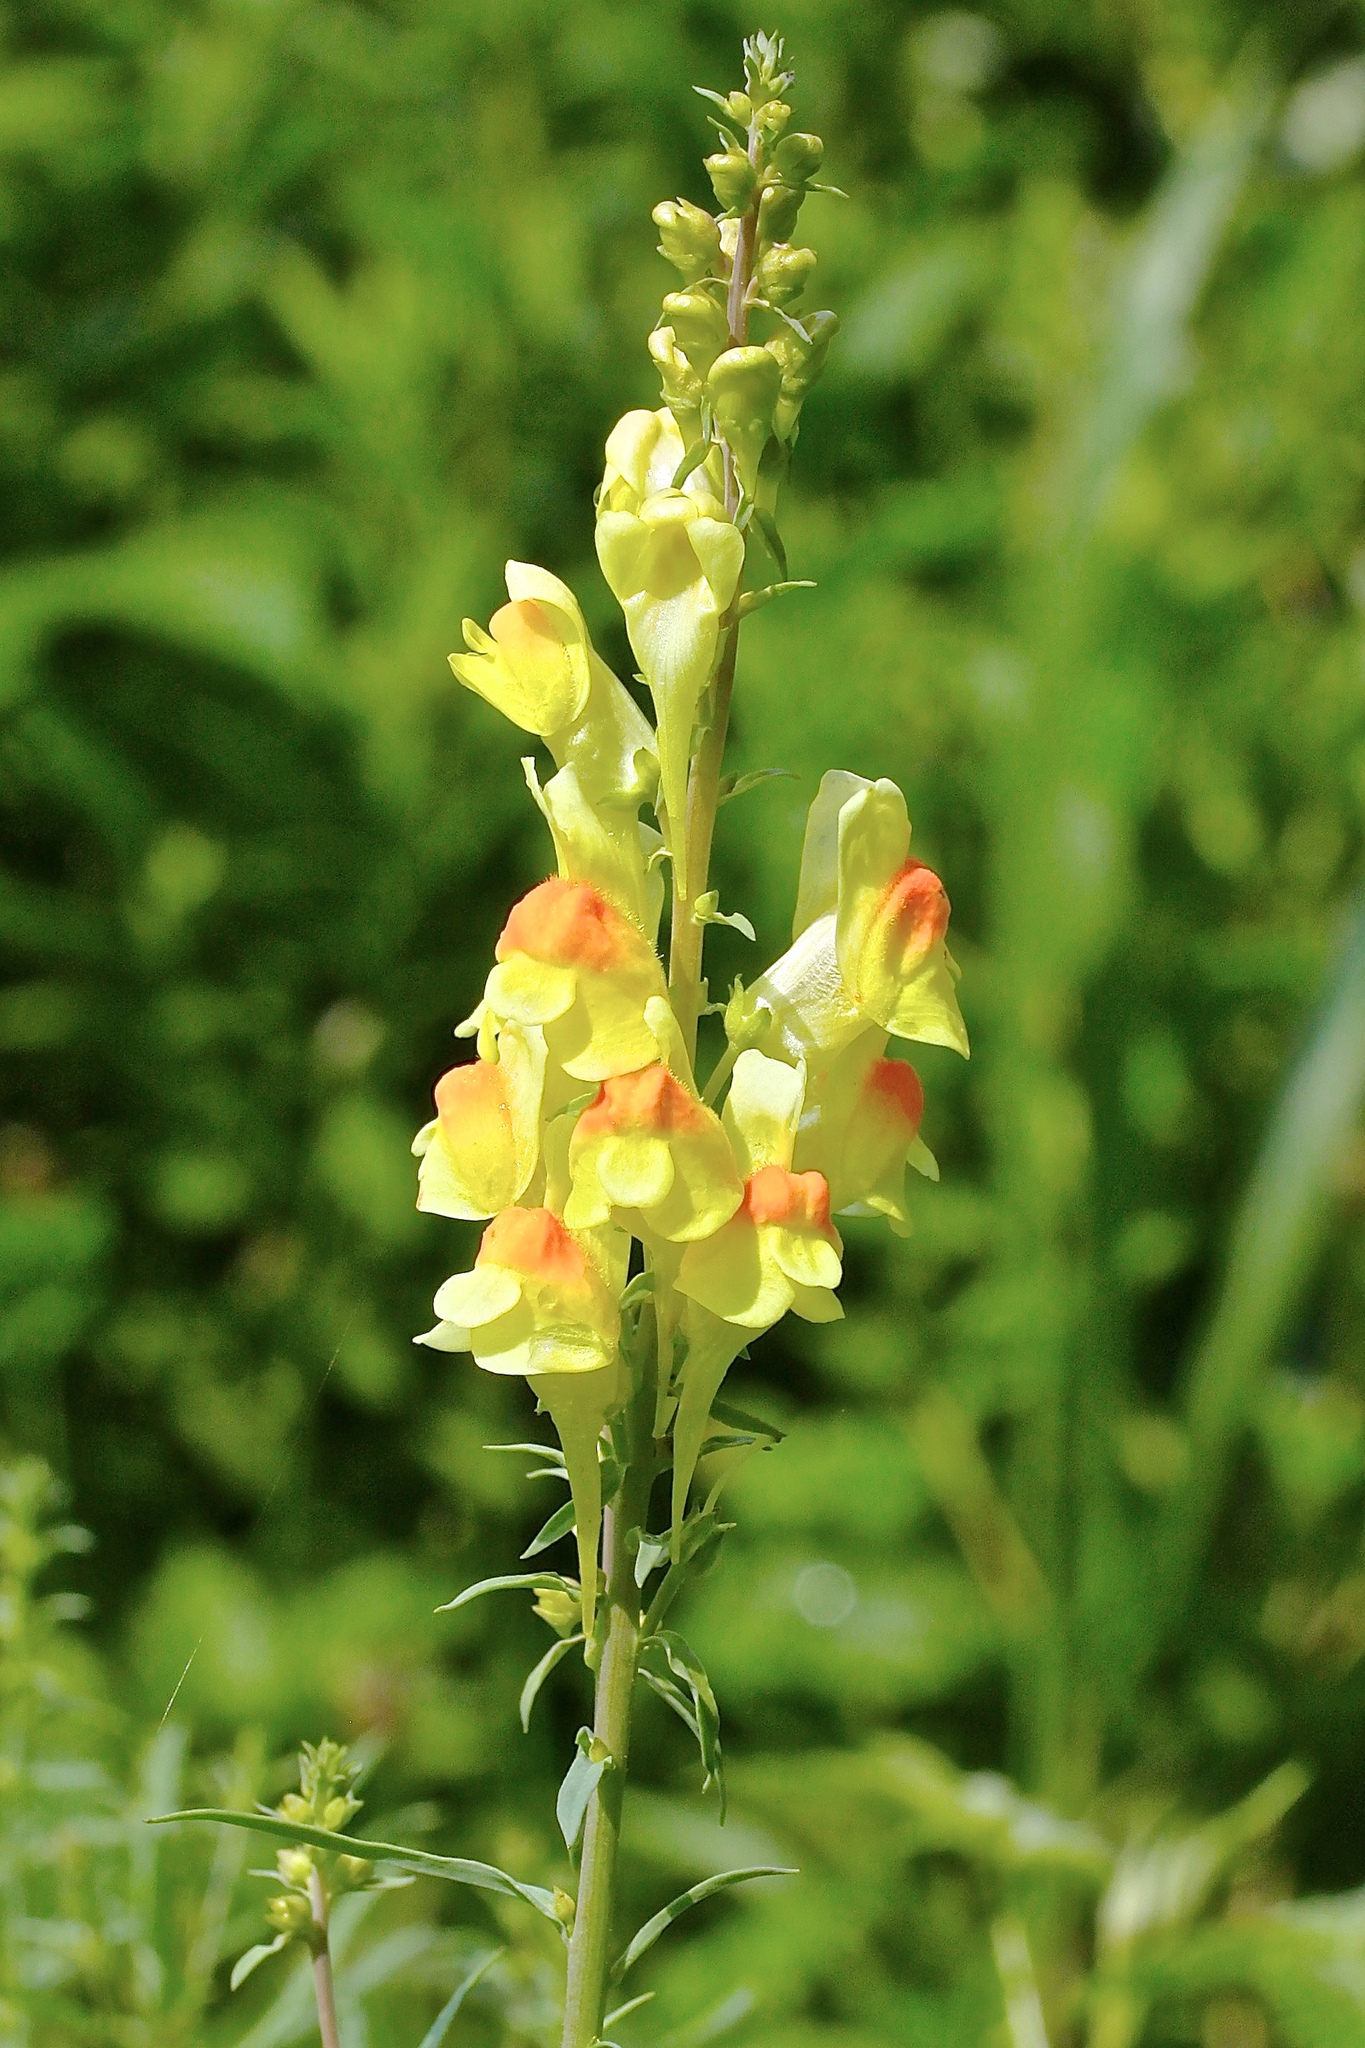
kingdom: Plantae
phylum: Tracheophyta
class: Magnoliopsida
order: Lamiales
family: Plantaginaceae
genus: Linaria
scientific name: Linaria vulgaris
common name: Butter and eggs
